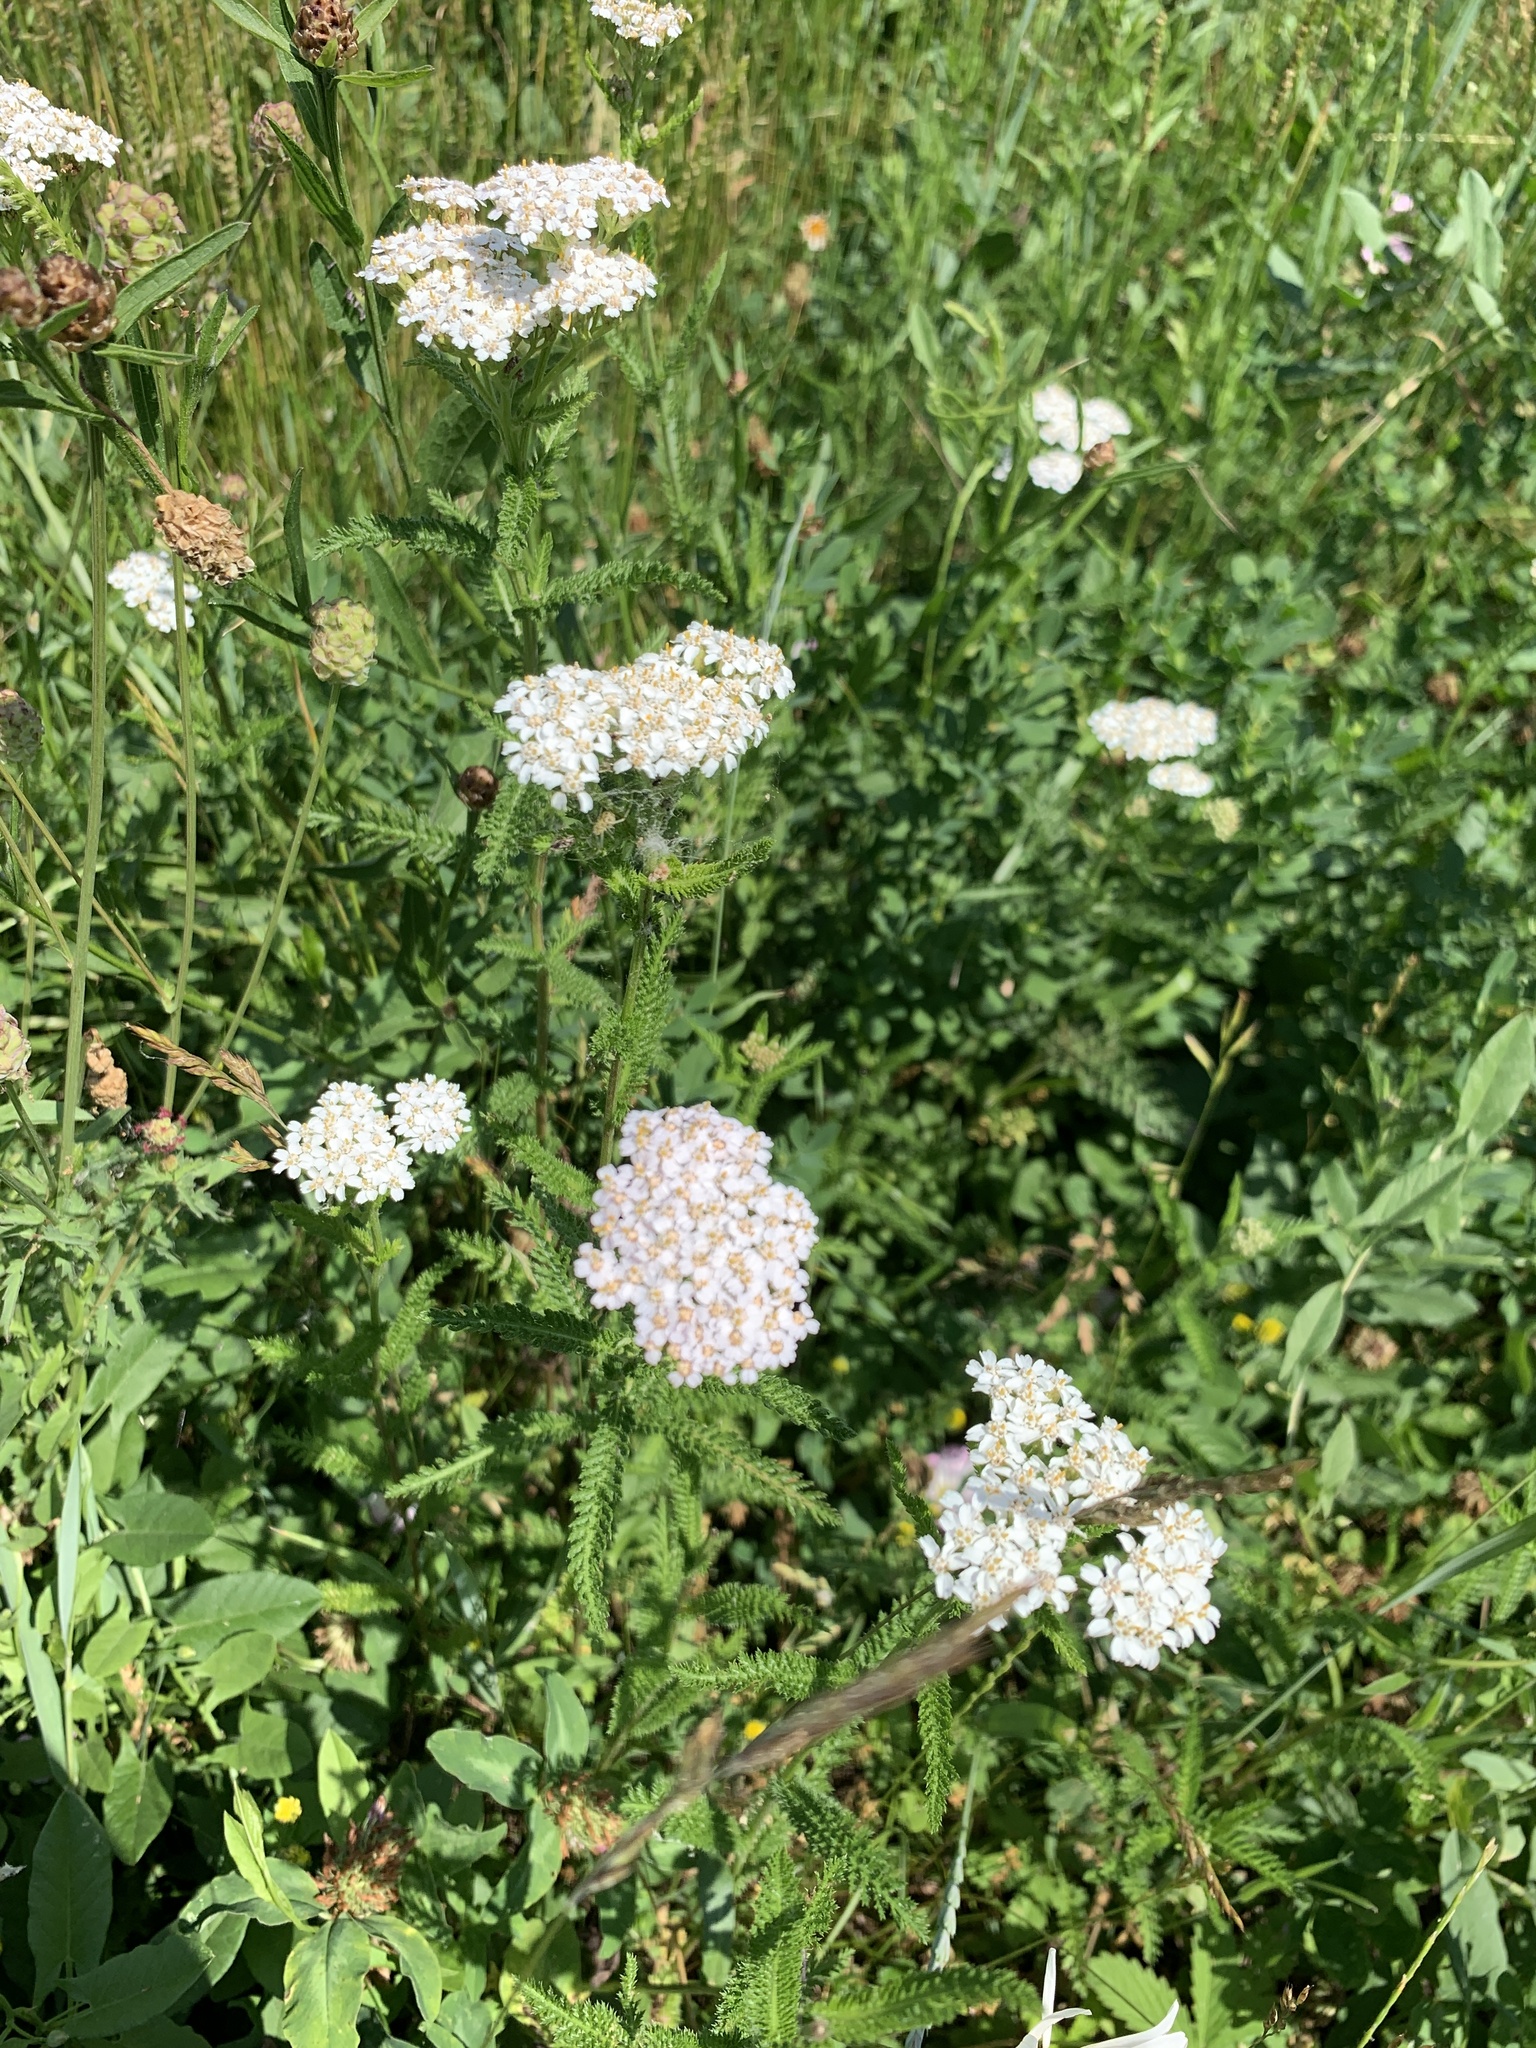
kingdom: Plantae
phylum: Tracheophyta
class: Magnoliopsida
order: Asterales
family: Asteraceae
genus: Achillea
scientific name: Achillea millefolium
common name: Yarrow
